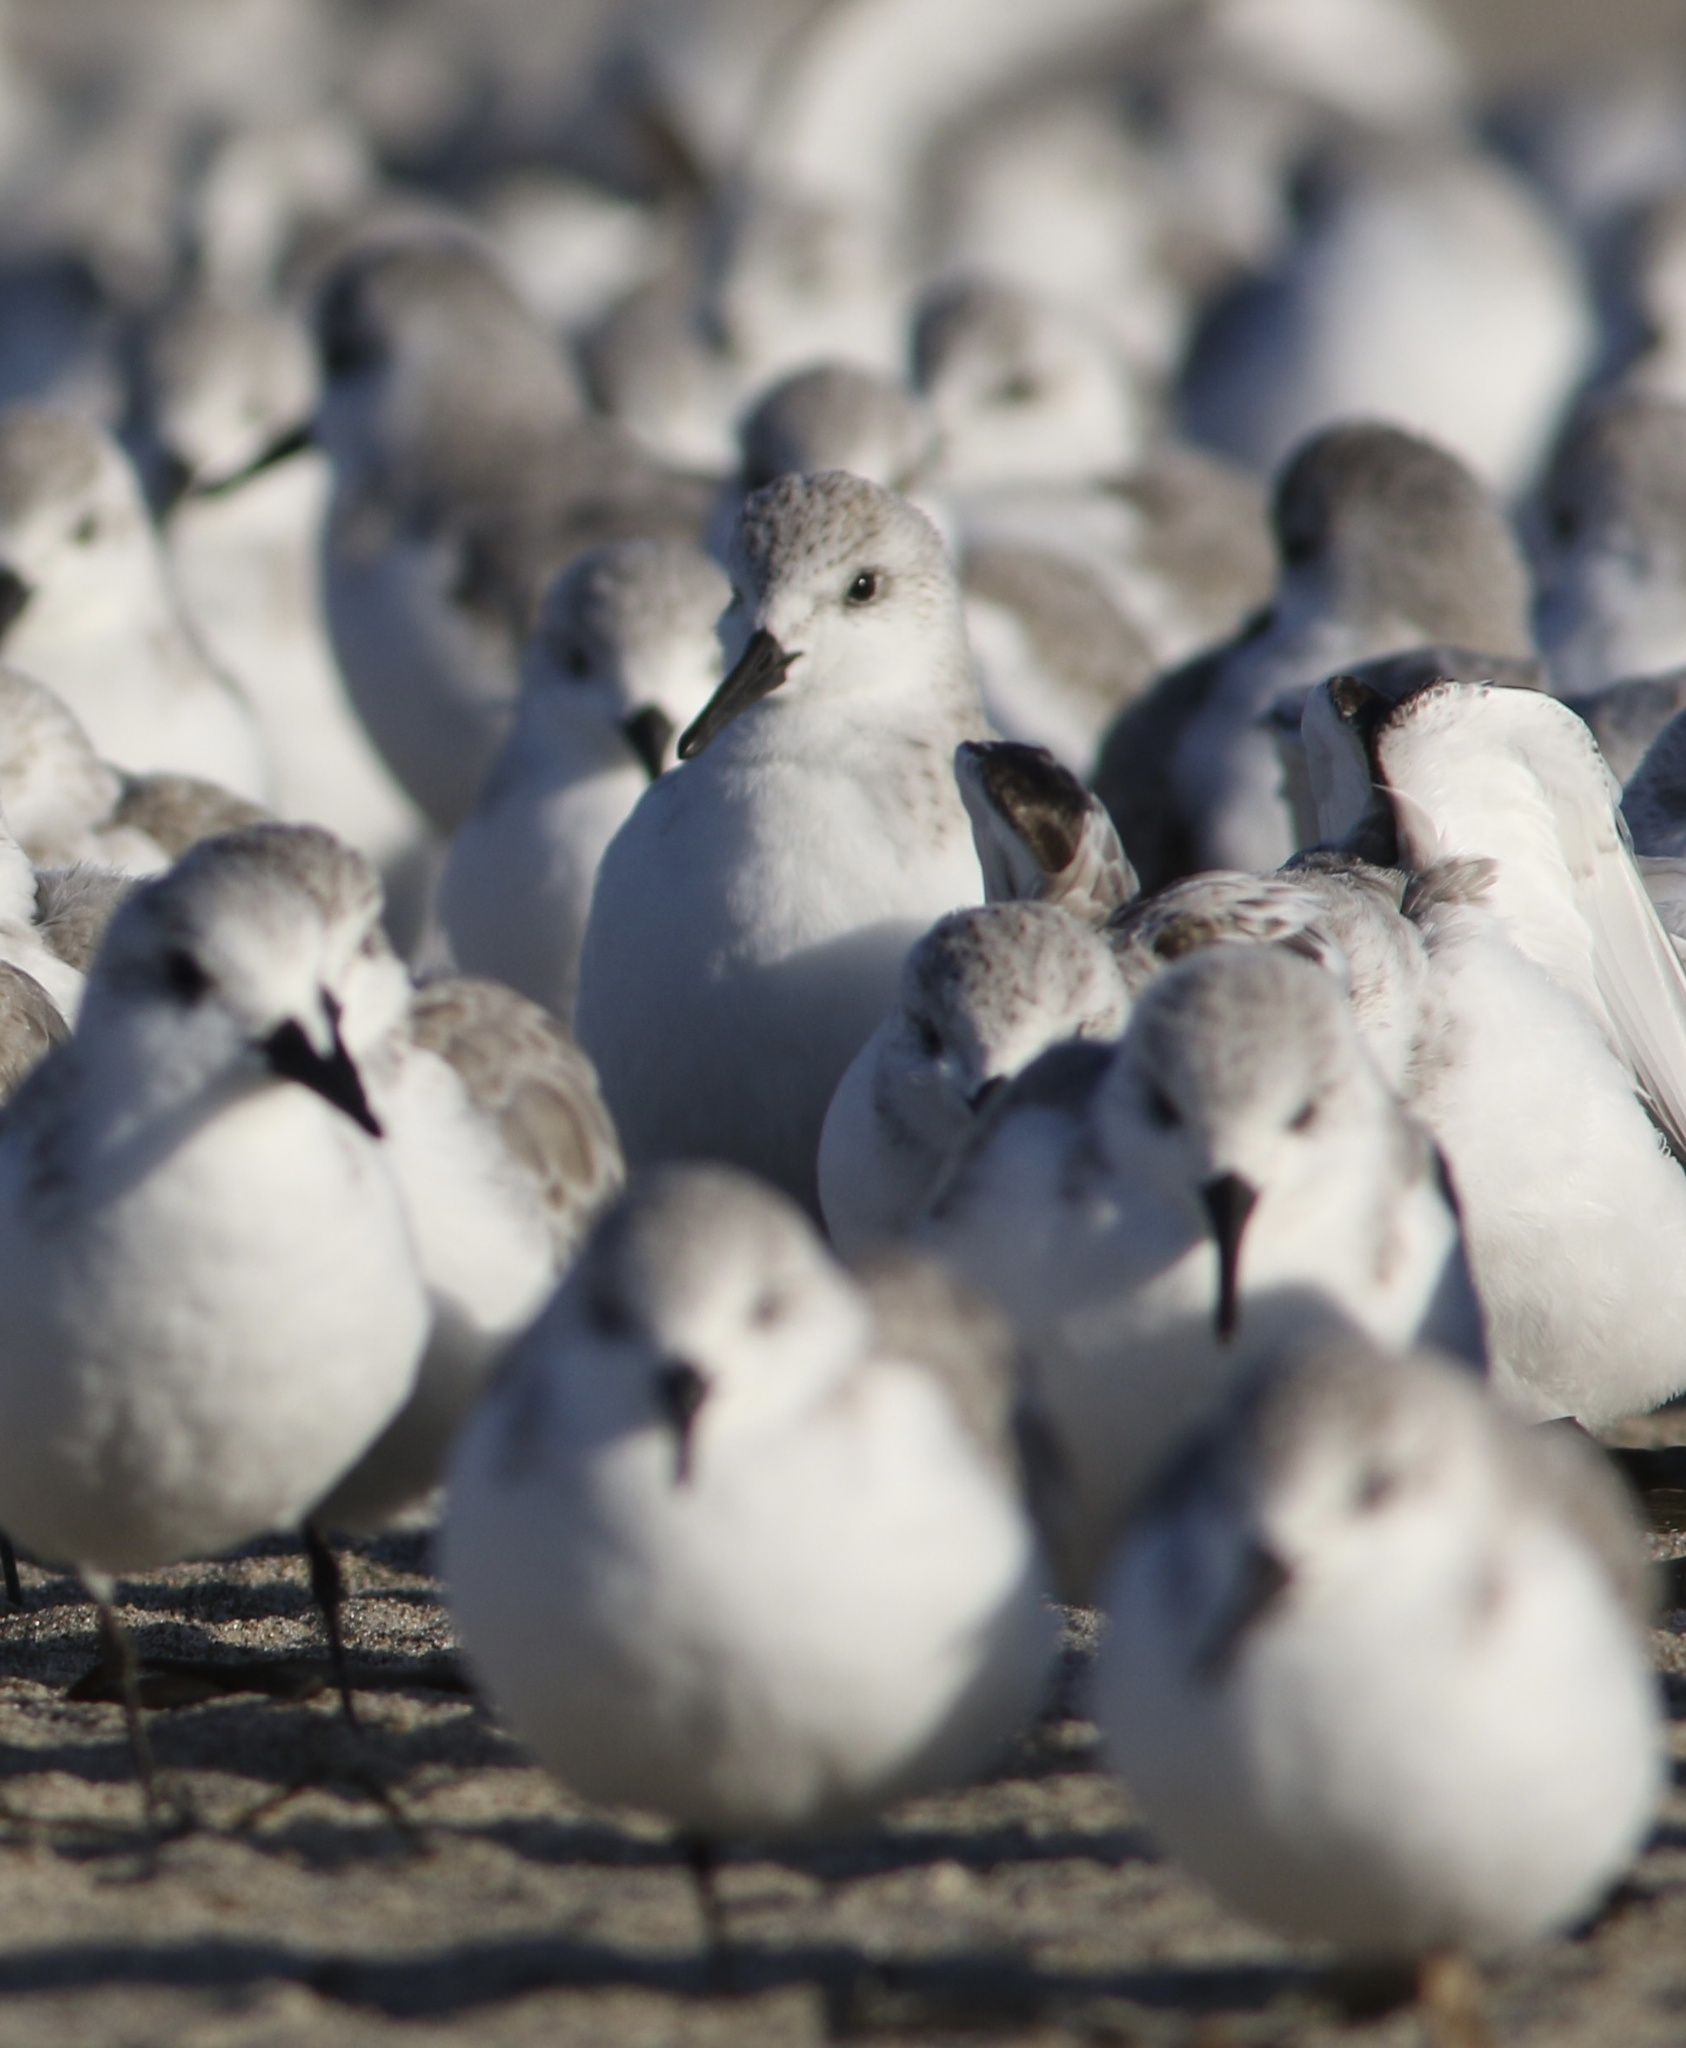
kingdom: Animalia
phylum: Chordata
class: Aves
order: Charadriiformes
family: Scolopacidae
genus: Calidris
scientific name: Calidris alba
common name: Sanderling
